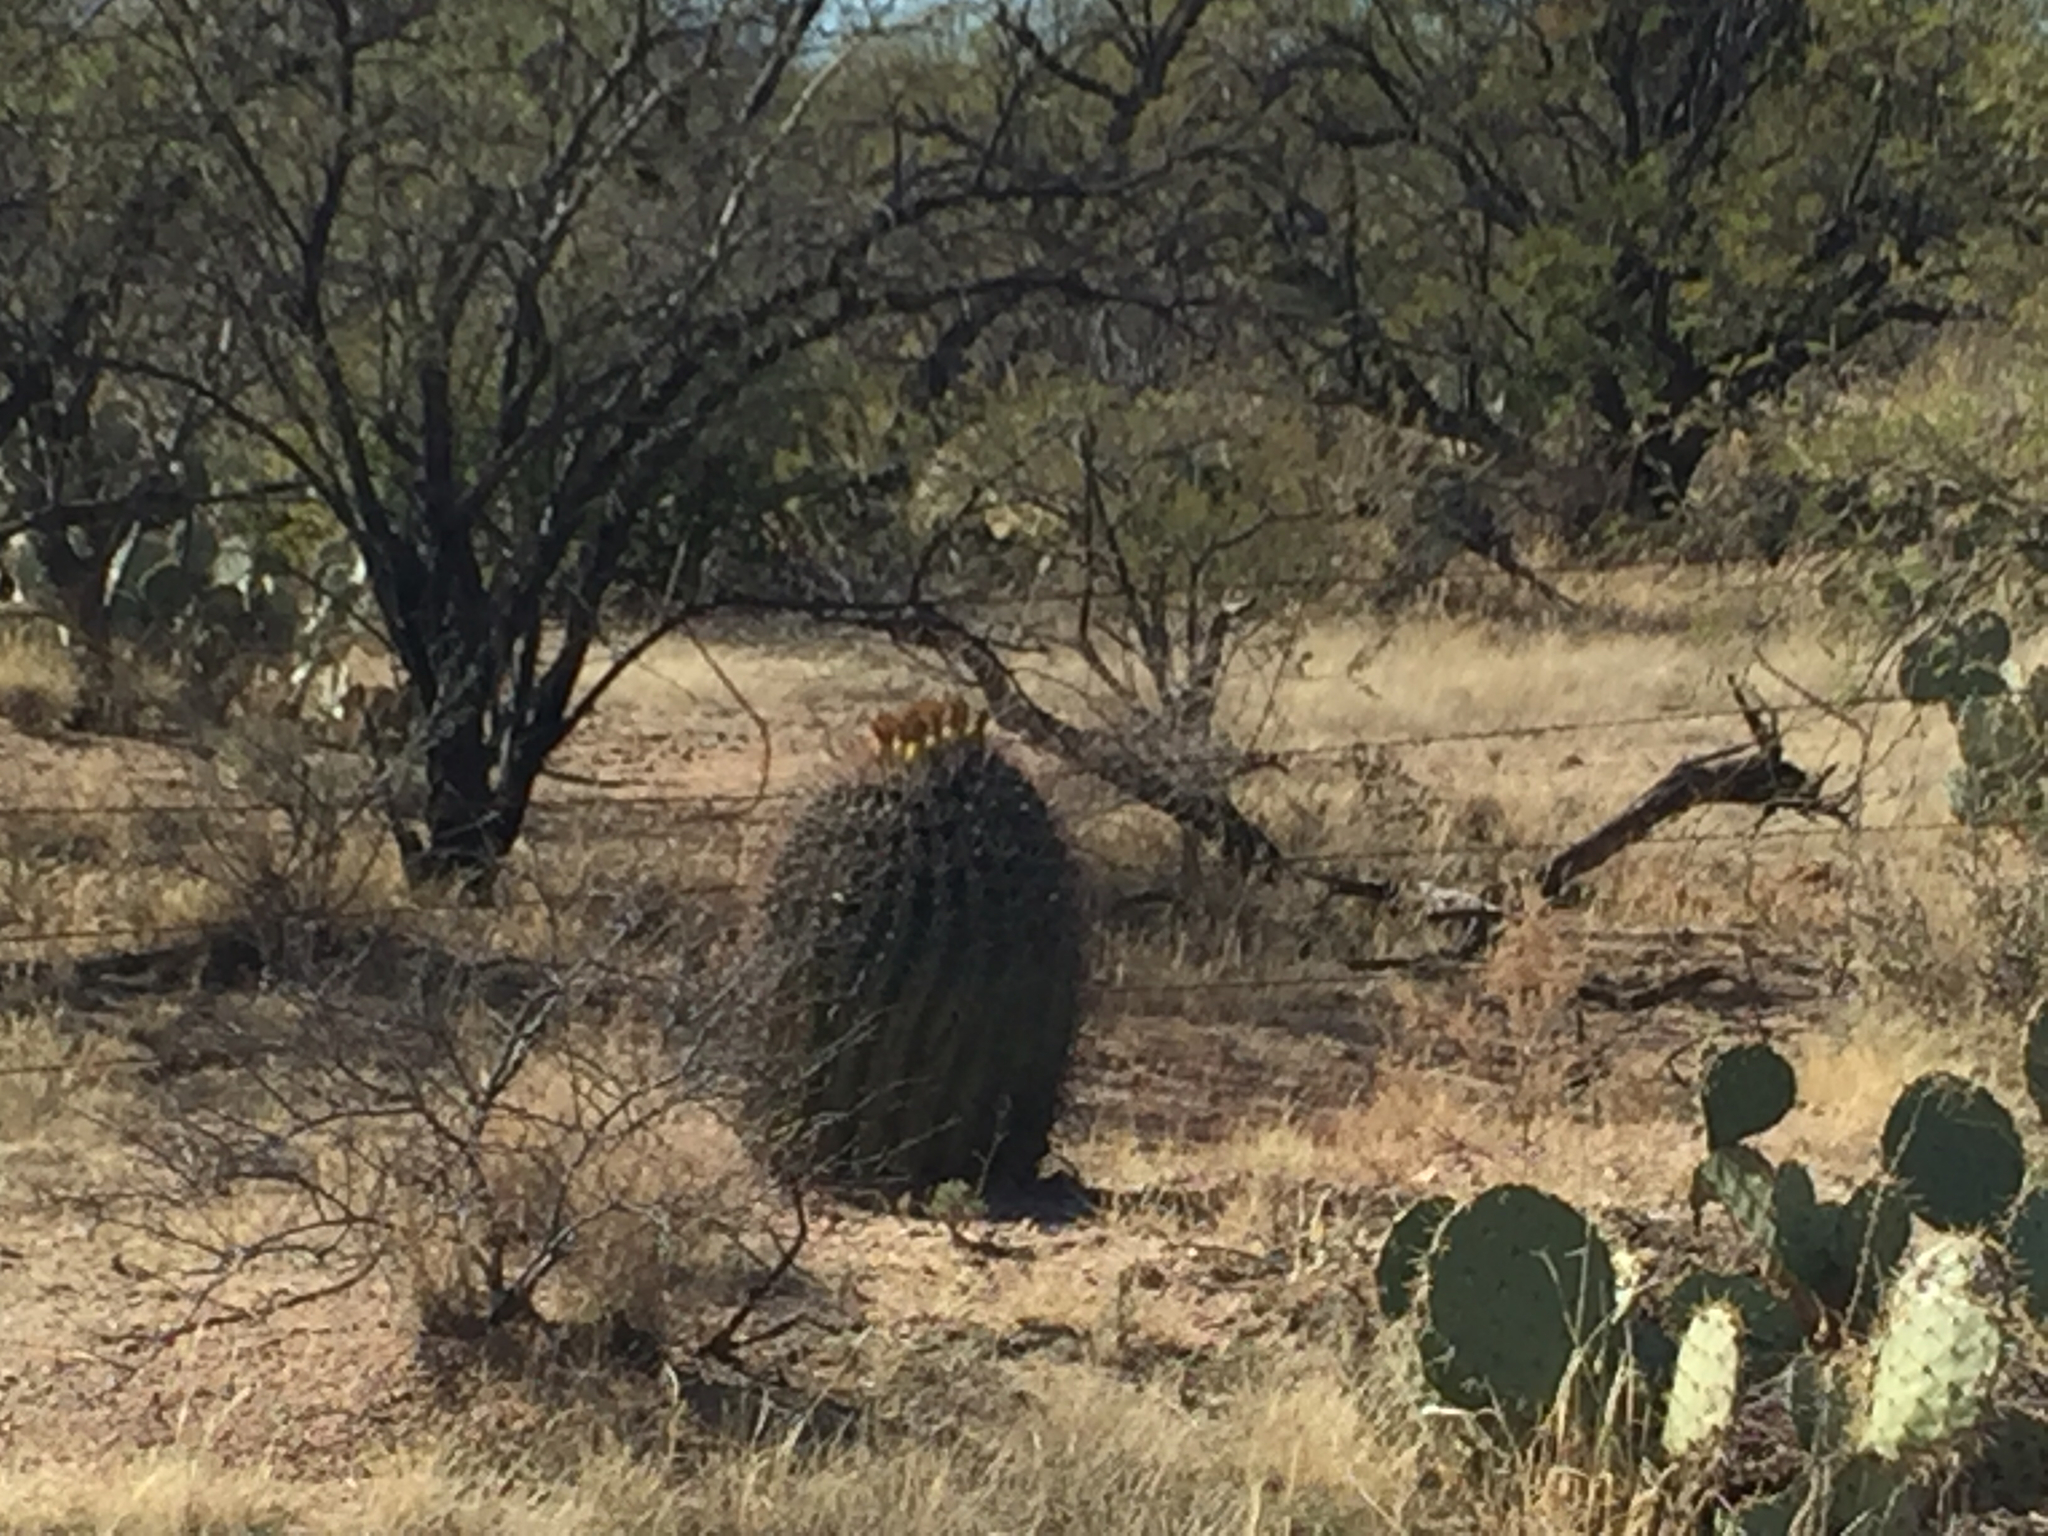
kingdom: Plantae
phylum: Tracheophyta
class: Magnoliopsida
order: Caryophyllales
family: Cactaceae
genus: Ferocactus
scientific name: Ferocactus wislizeni
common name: Candy barrel cactus
